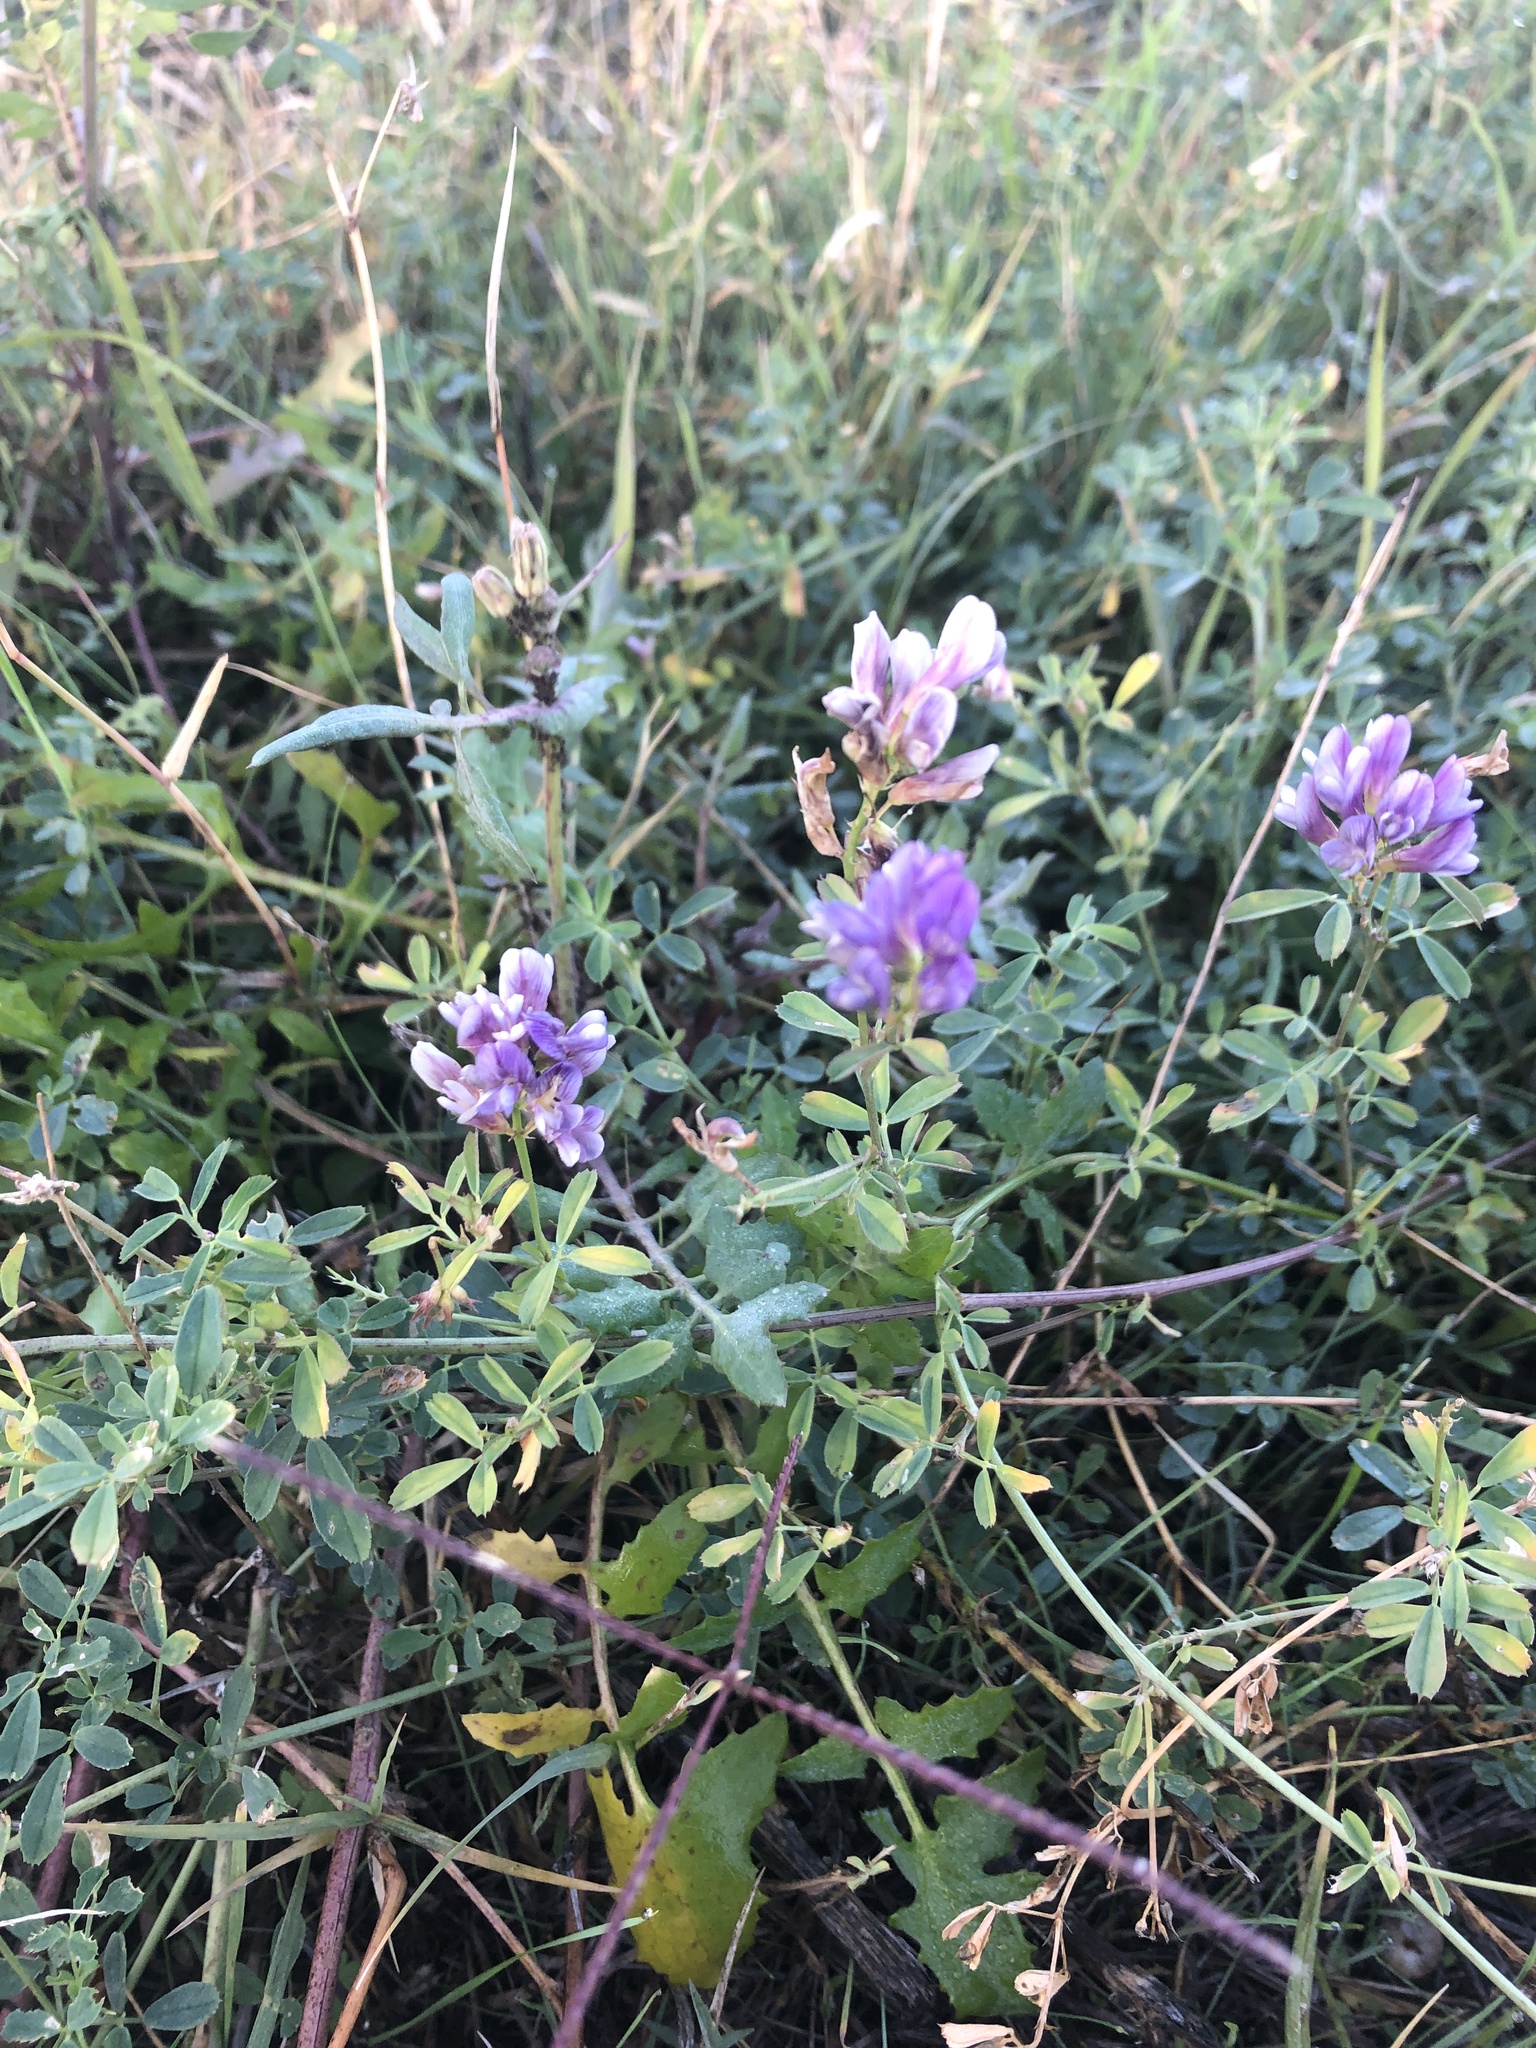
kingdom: Plantae
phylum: Tracheophyta
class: Magnoliopsida
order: Fabales
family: Fabaceae
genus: Medicago
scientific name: Medicago sativa
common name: Alfalfa
